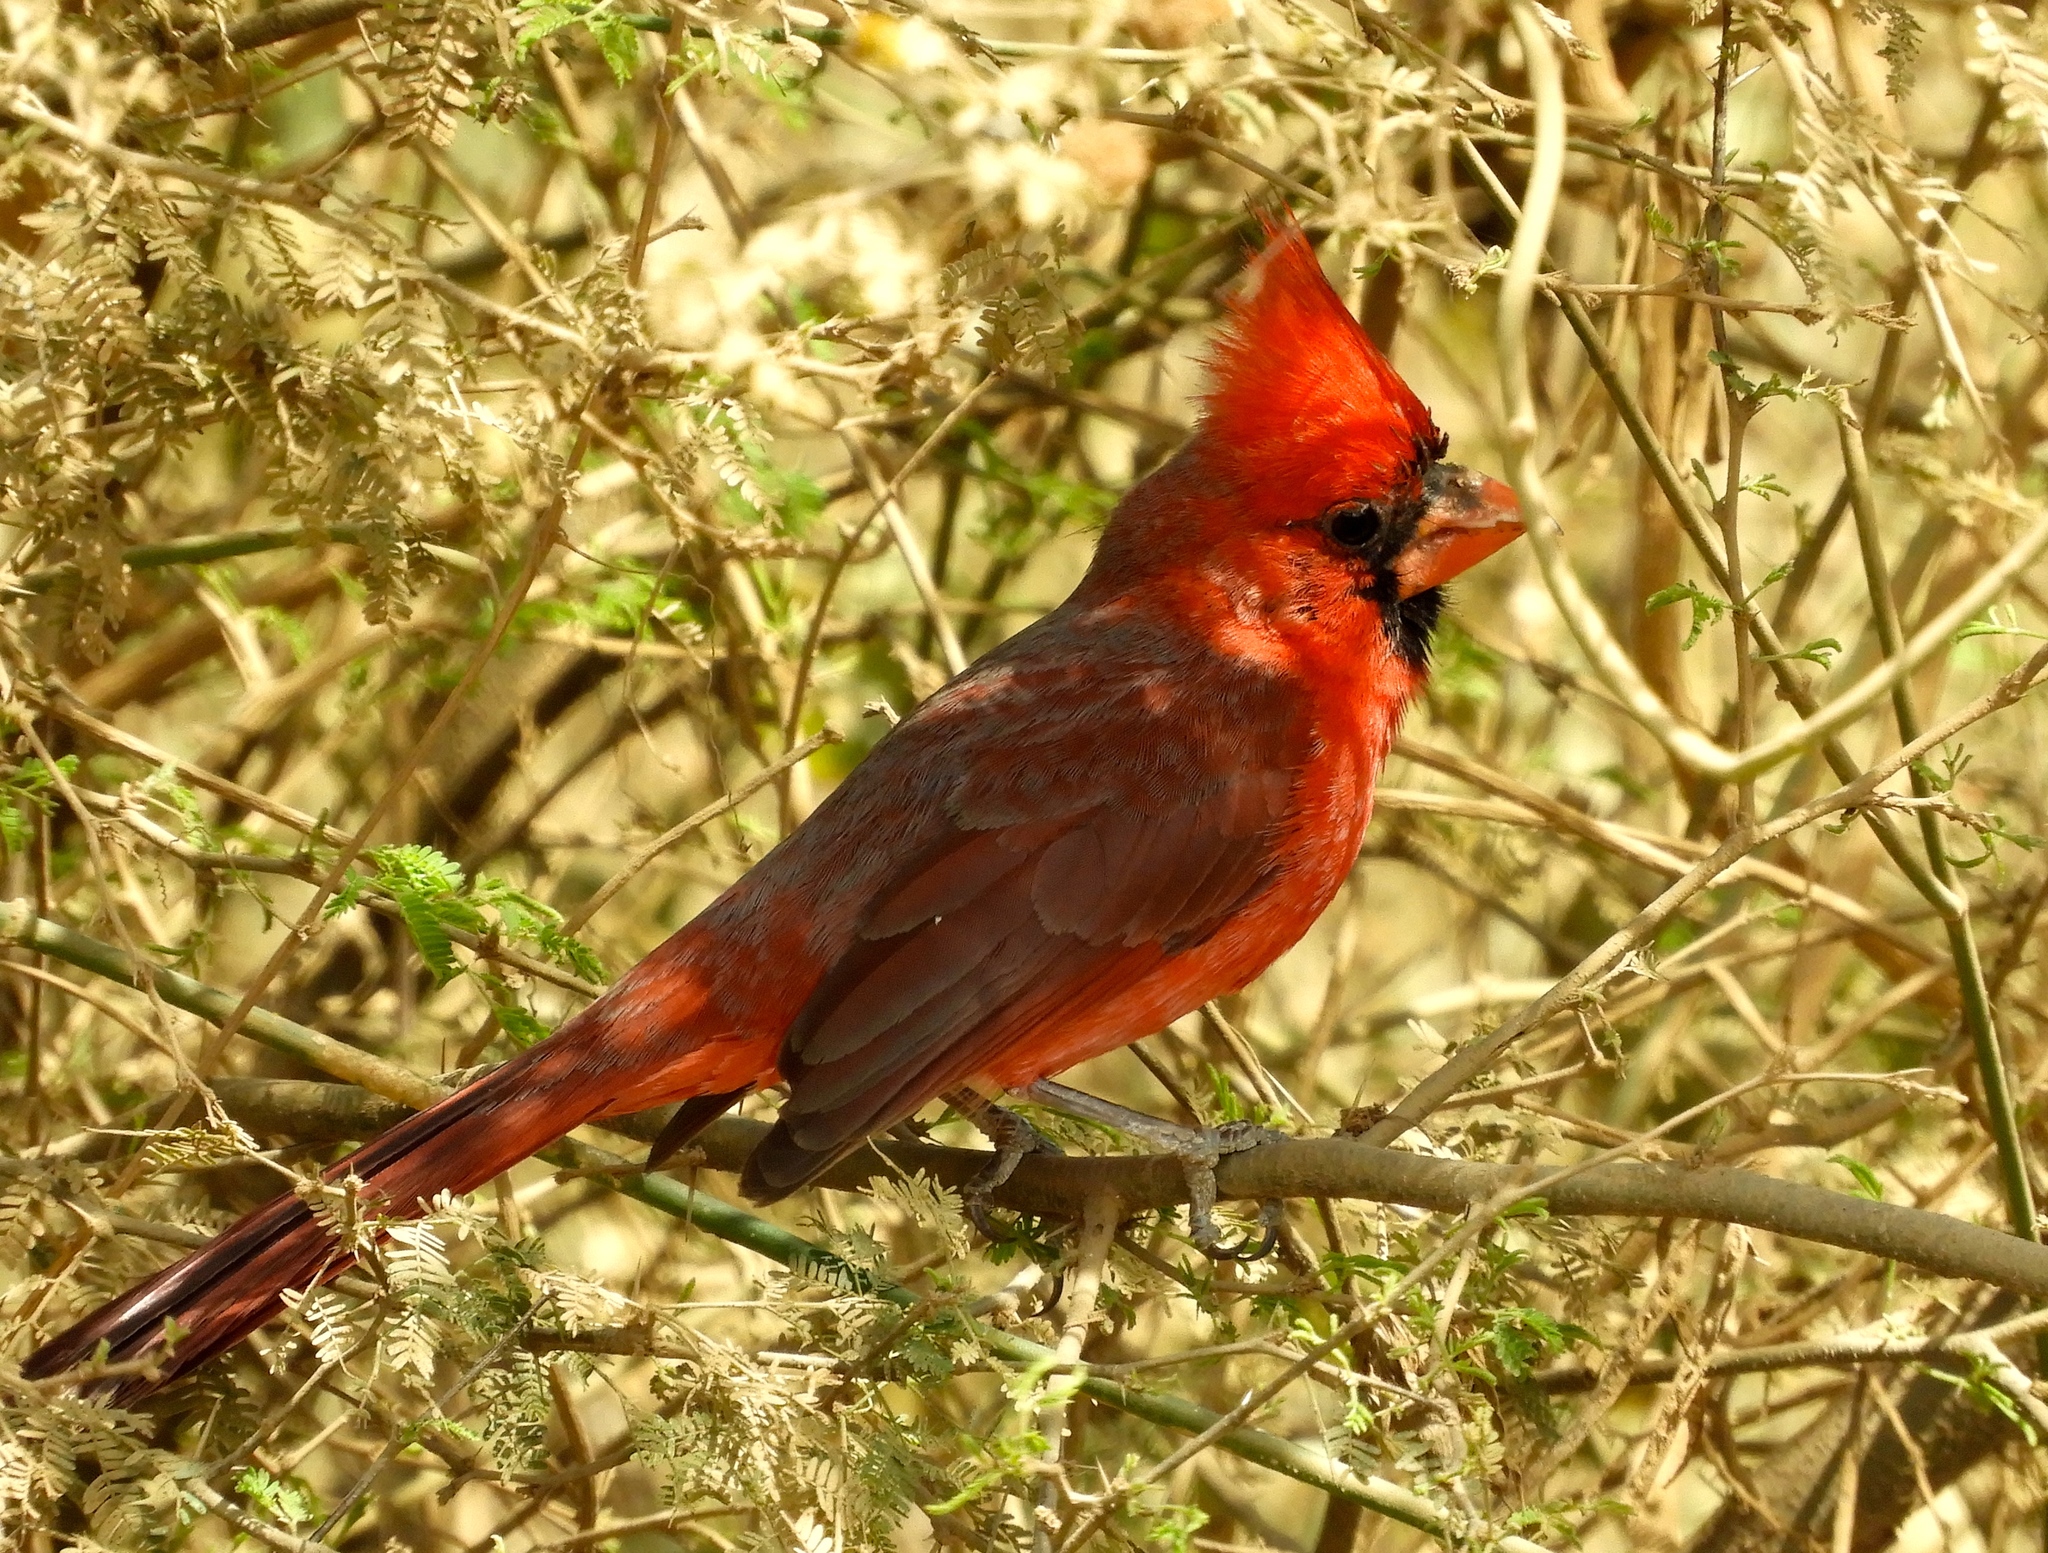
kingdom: Animalia
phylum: Chordata
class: Aves
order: Passeriformes
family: Cardinalidae
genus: Cardinalis
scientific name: Cardinalis cardinalis
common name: Northern cardinal
